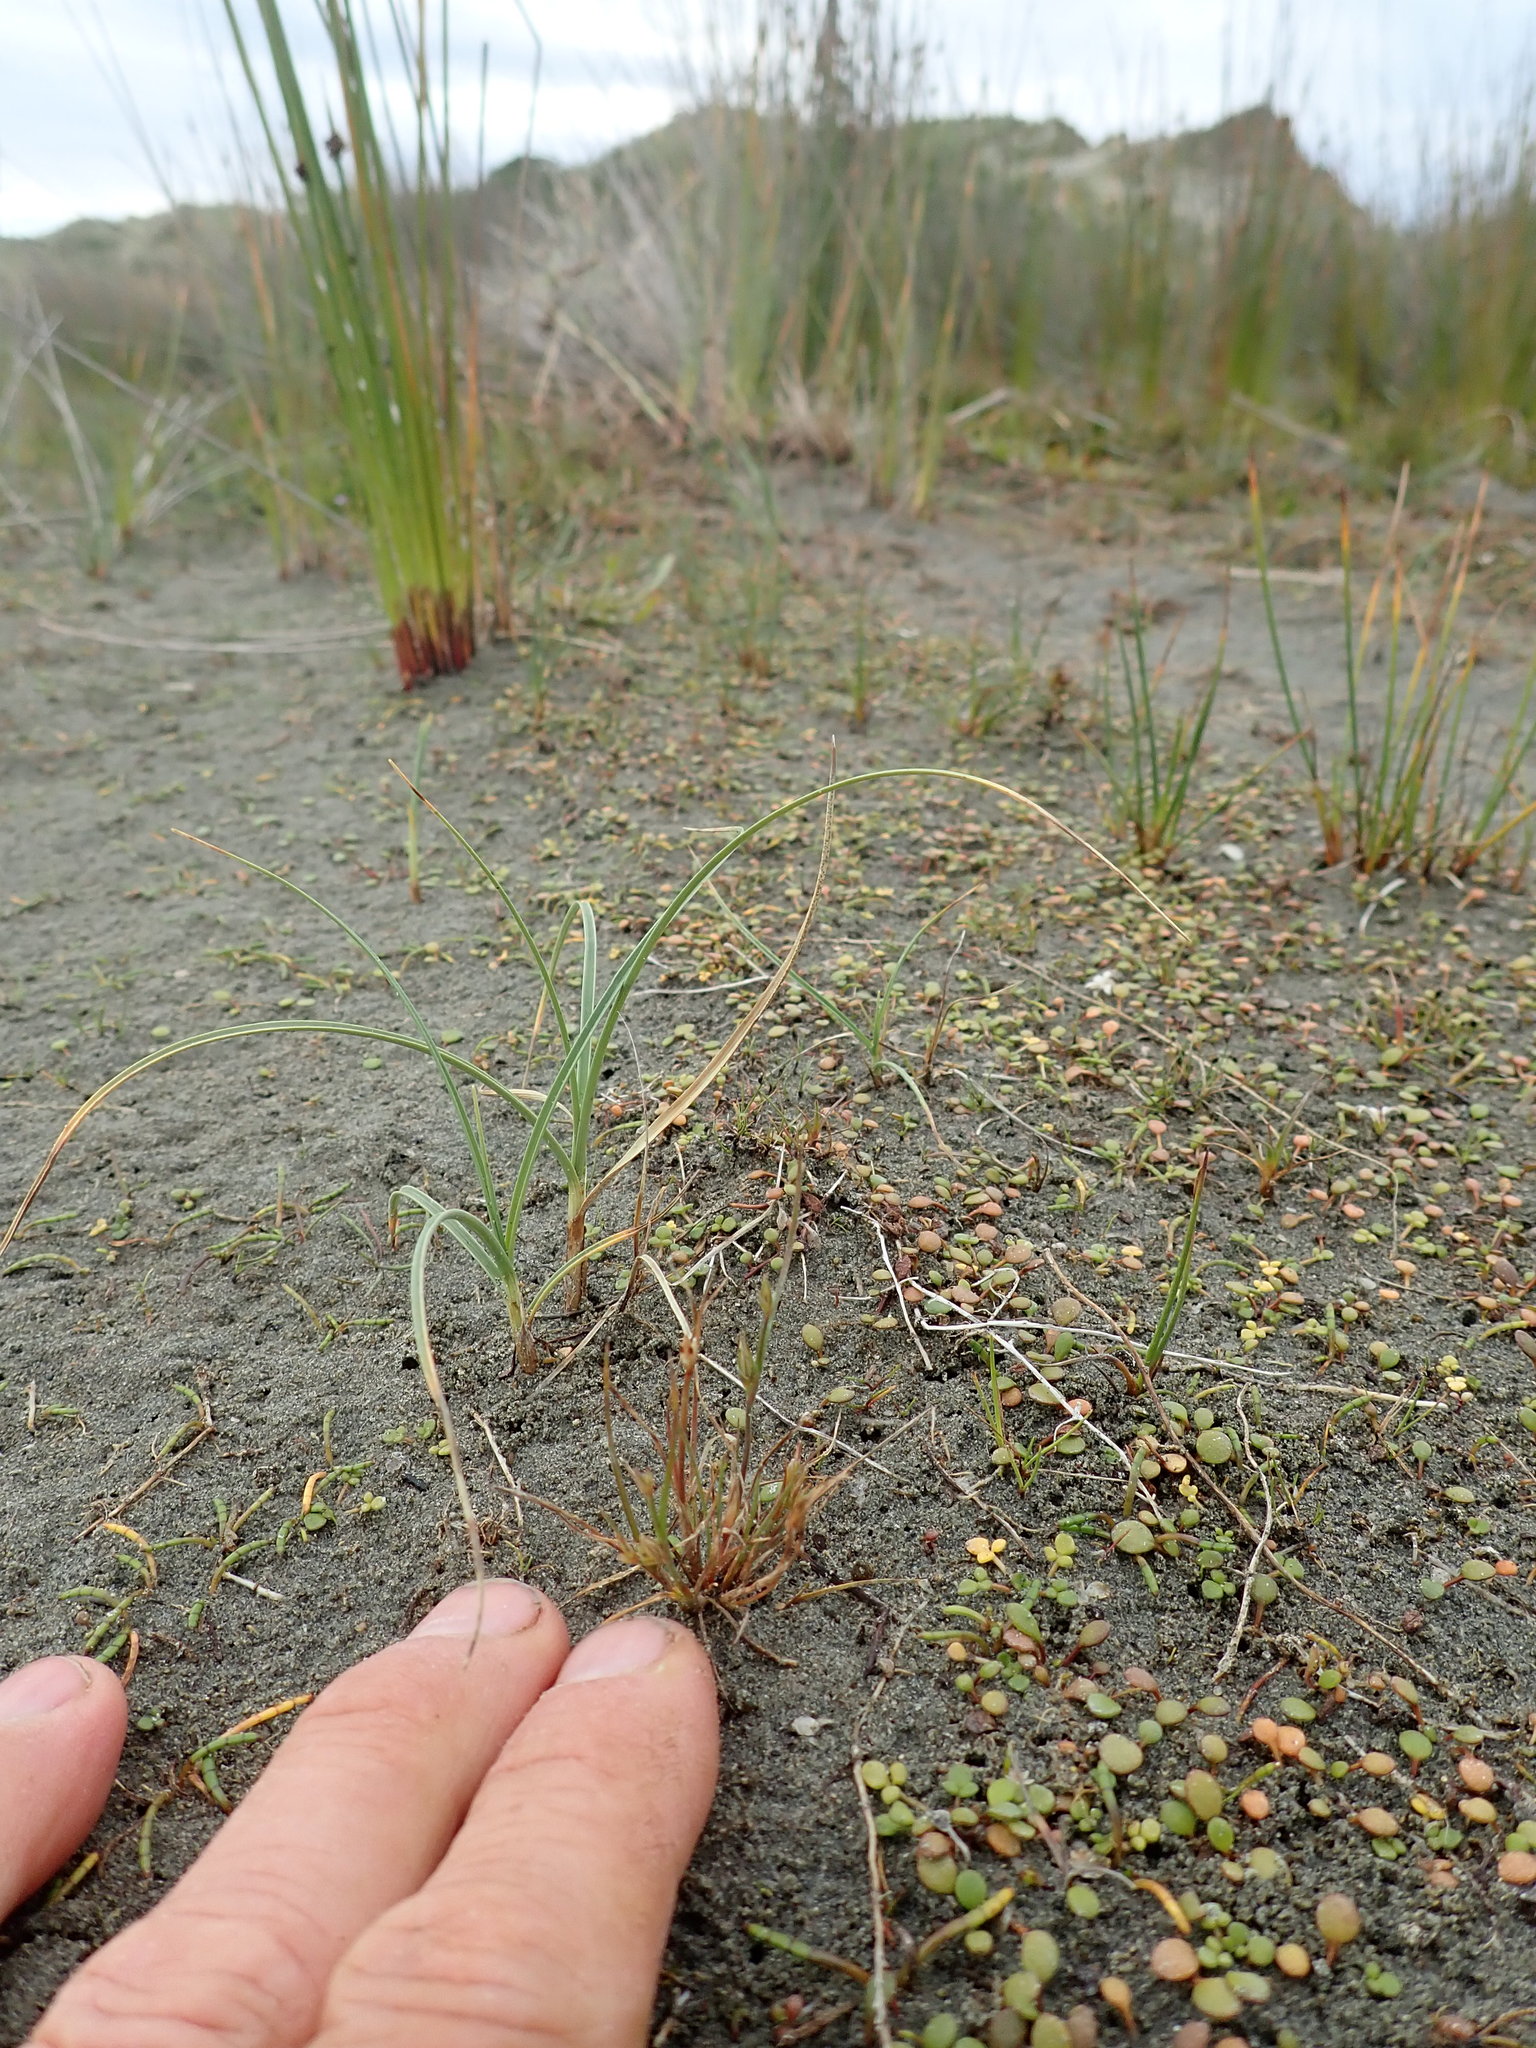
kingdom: Plantae
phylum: Tracheophyta
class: Liliopsida
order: Poales
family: Juncaceae
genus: Juncus
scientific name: Juncus bufonius
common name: Toad rush
